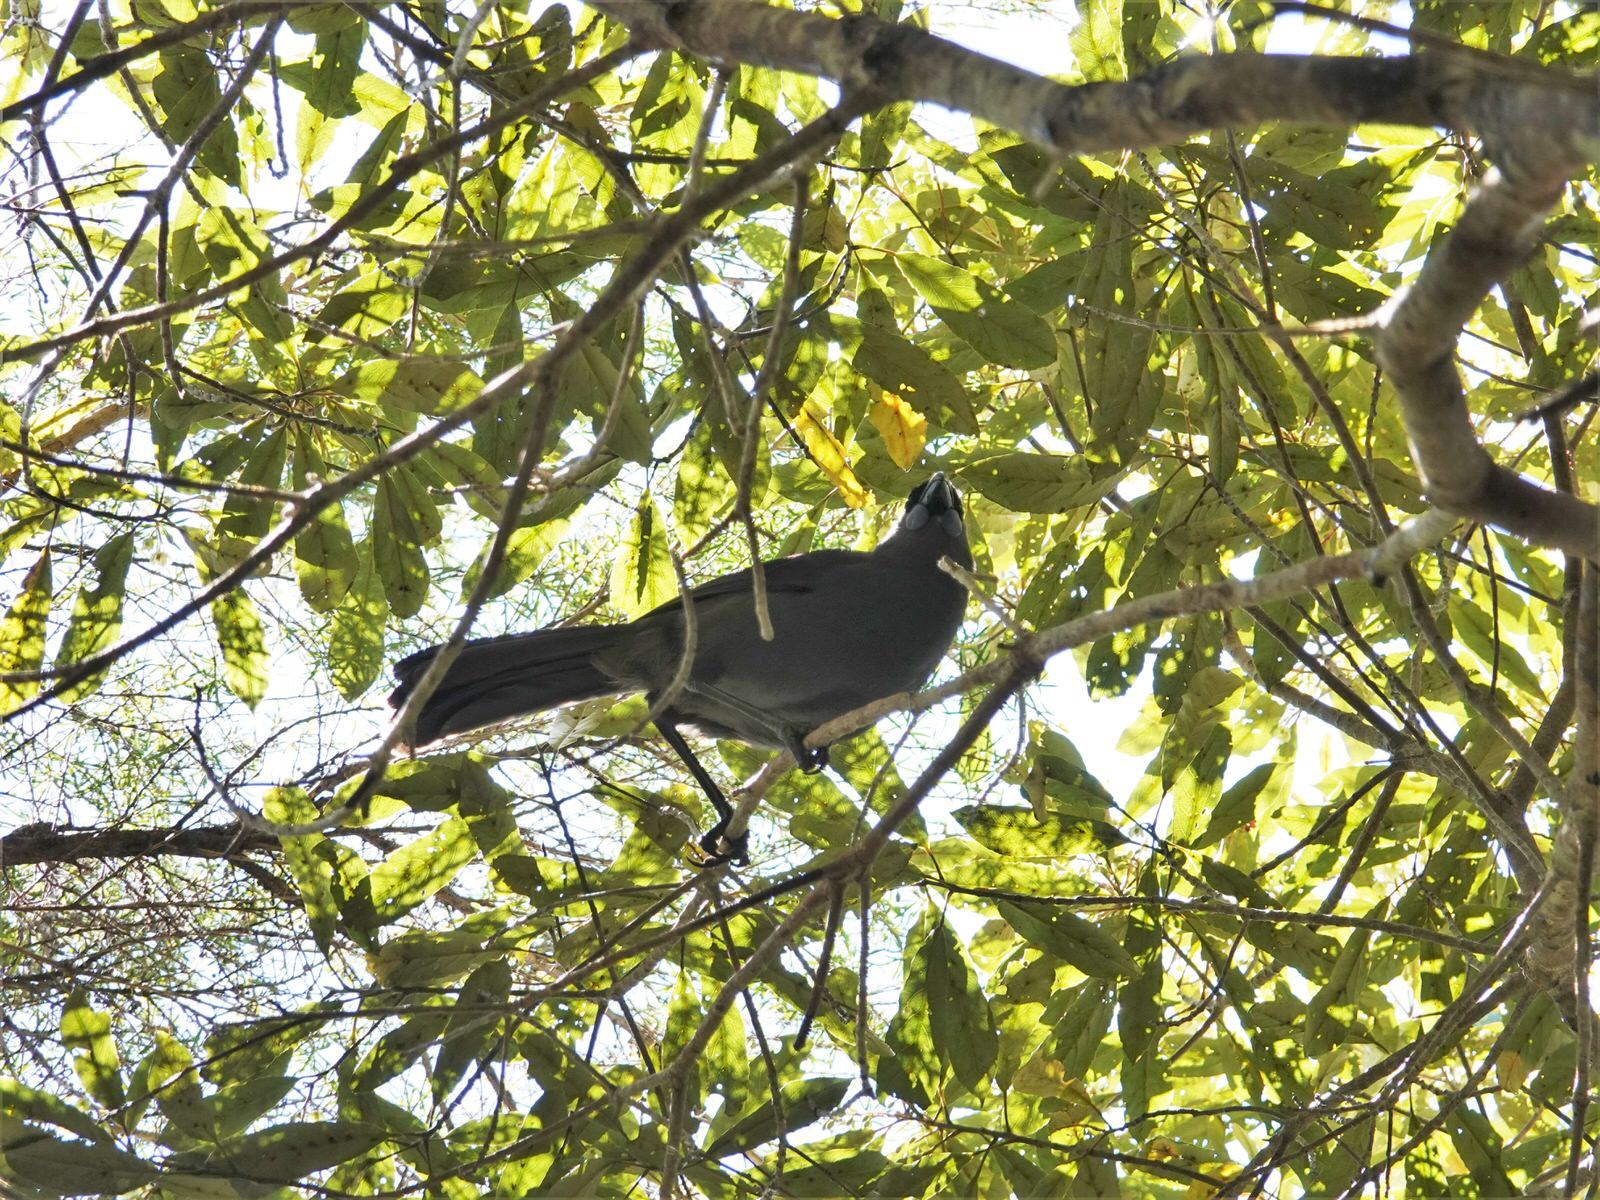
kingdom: Animalia
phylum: Chordata
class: Aves
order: Passeriformes
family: Callaeatidae
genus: Callaeas
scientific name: Callaeas cinereus
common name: South island kokako
